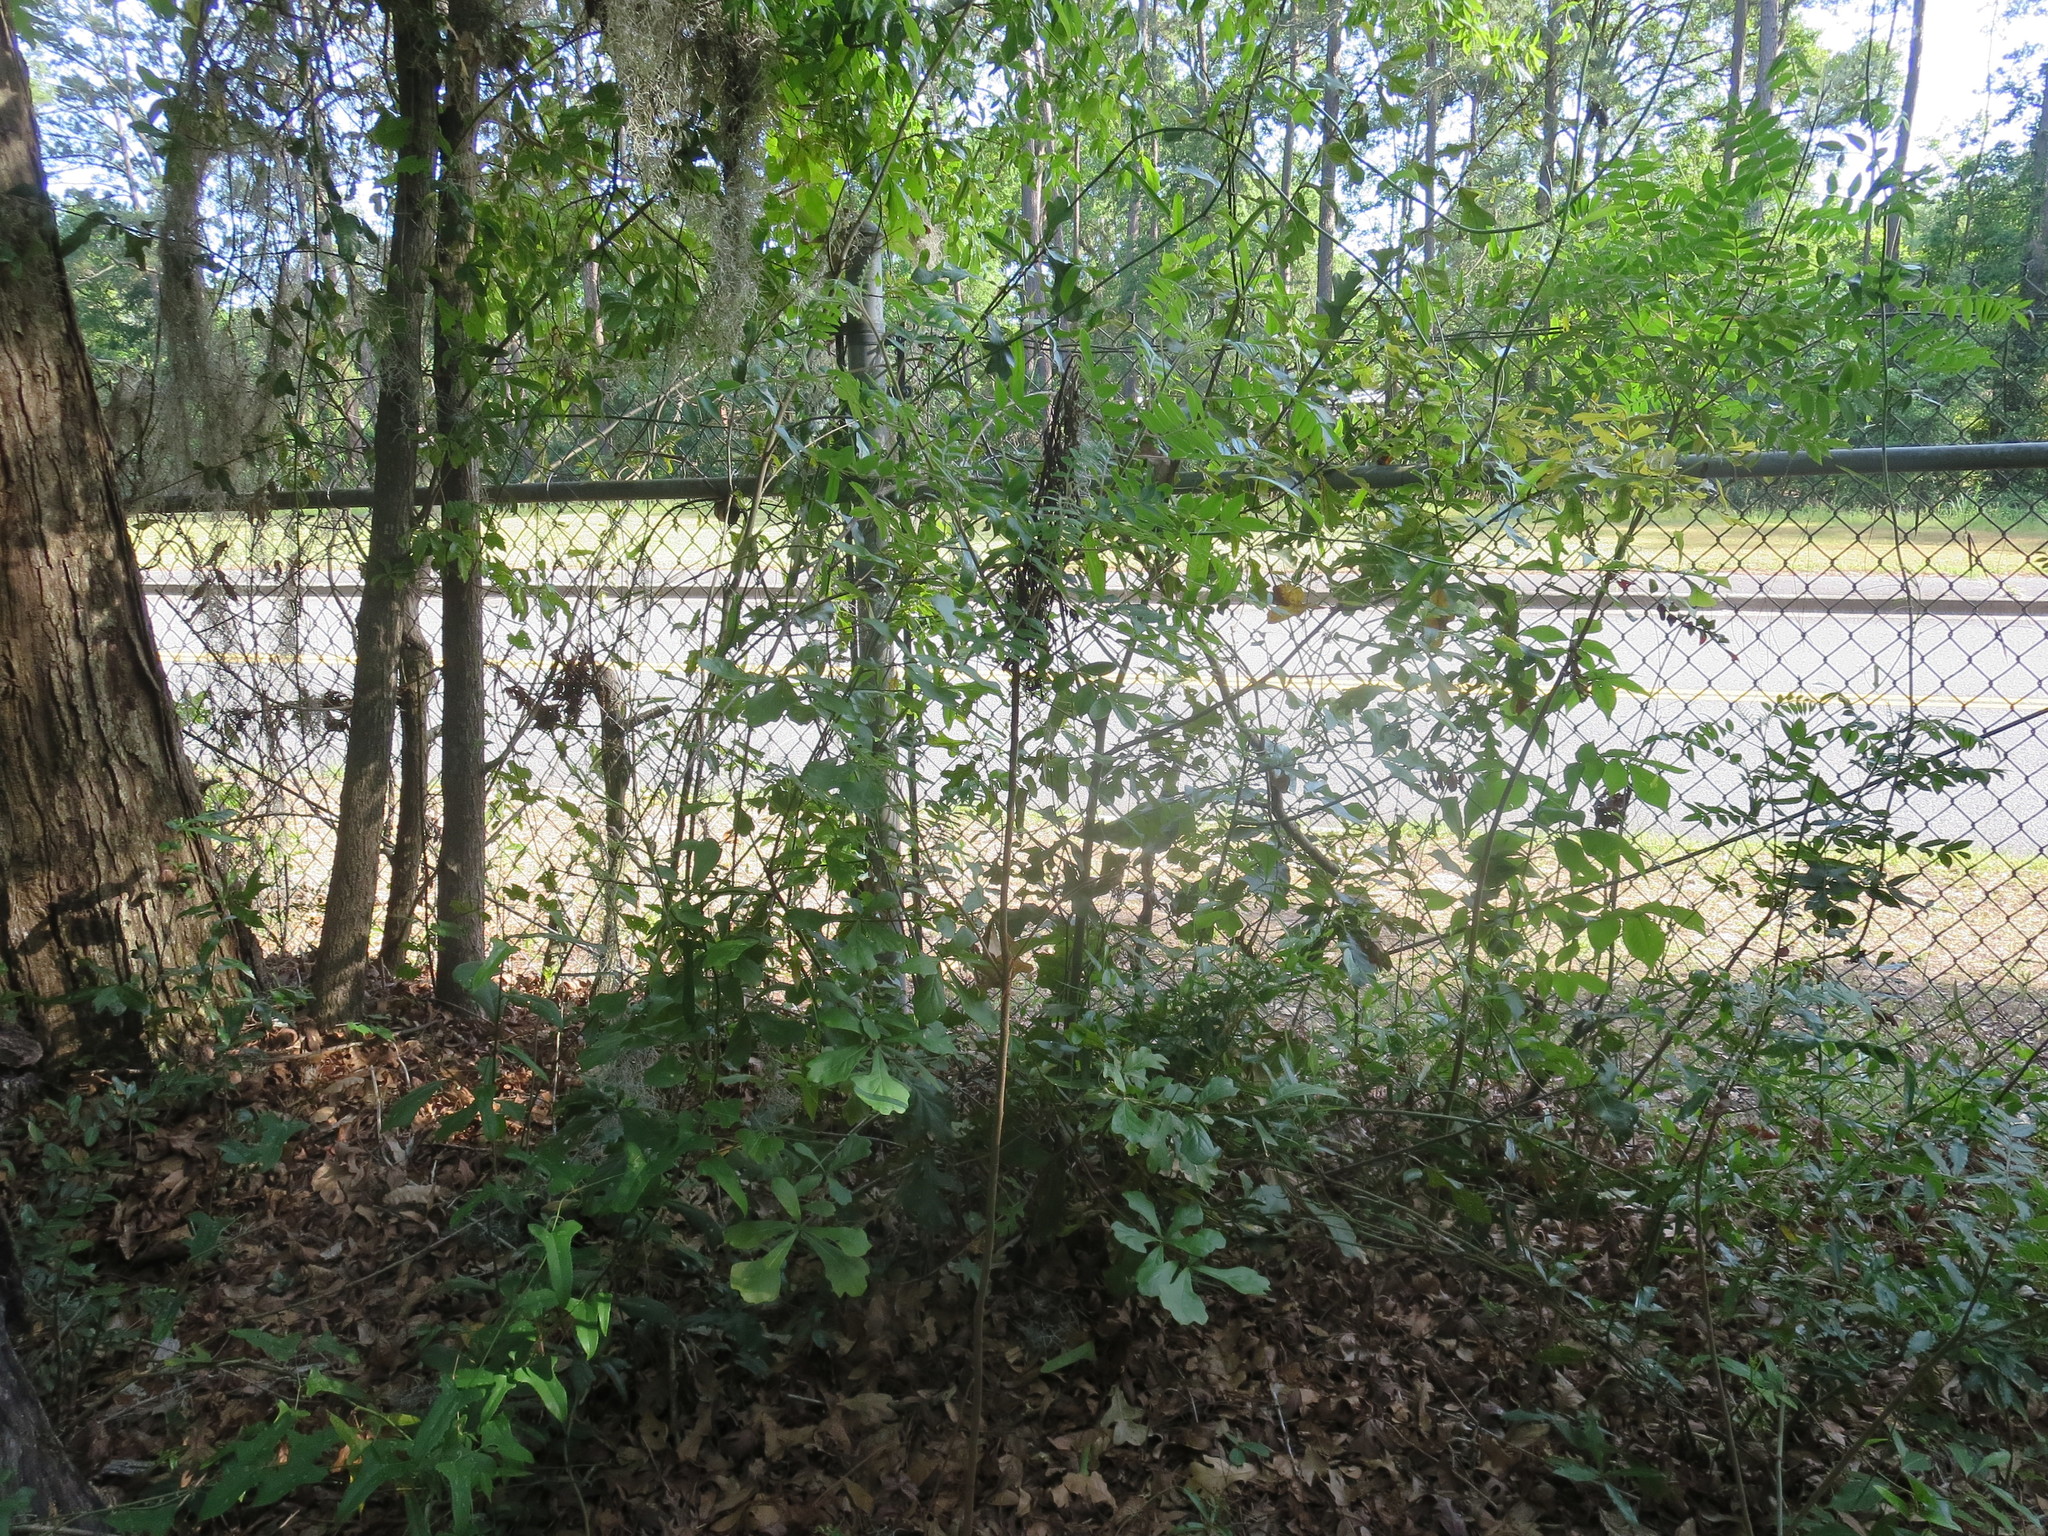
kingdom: Plantae
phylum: Tracheophyta
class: Magnoliopsida
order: Sapindales
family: Anacardiaceae
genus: Rhus
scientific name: Rhus copallina
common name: Shining sumac
